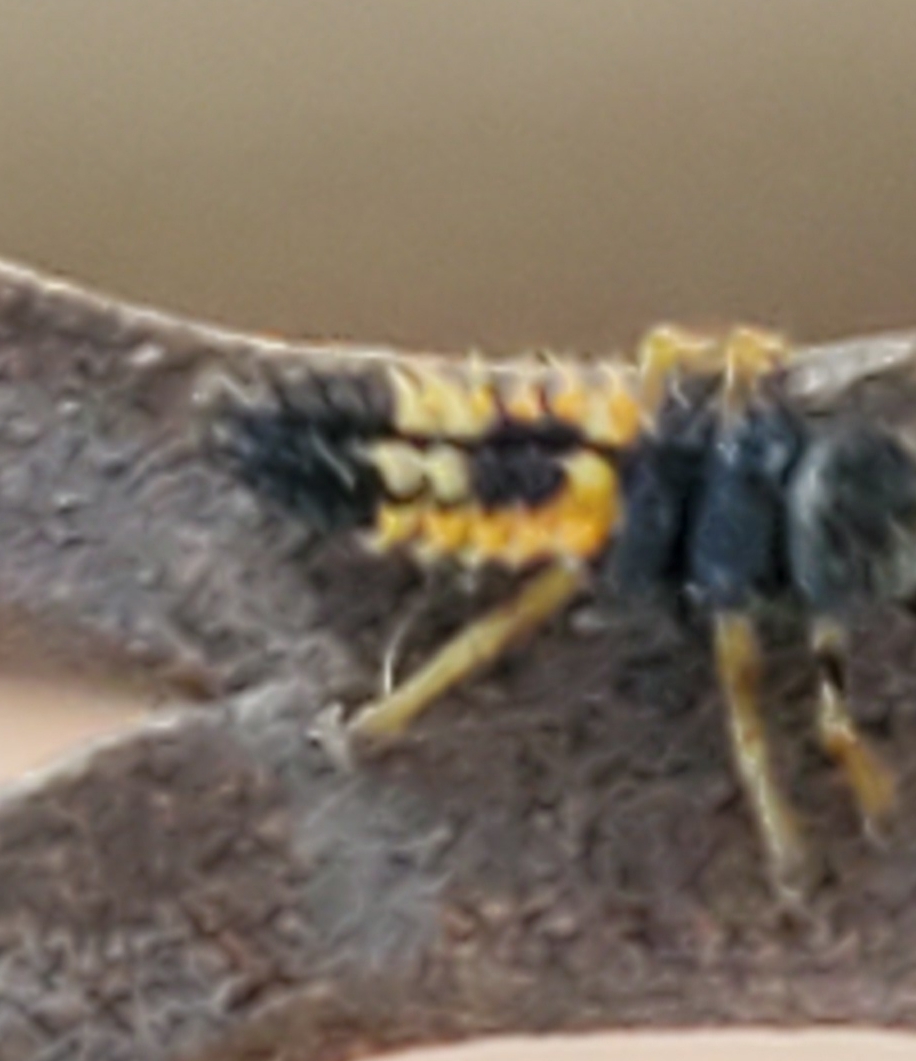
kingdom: Animalia
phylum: Arthropoda
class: Insecta
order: Coleoptera
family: Coccinellidae
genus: Harmonia
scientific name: Harmonia axyridis
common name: Harlequin ladybird
